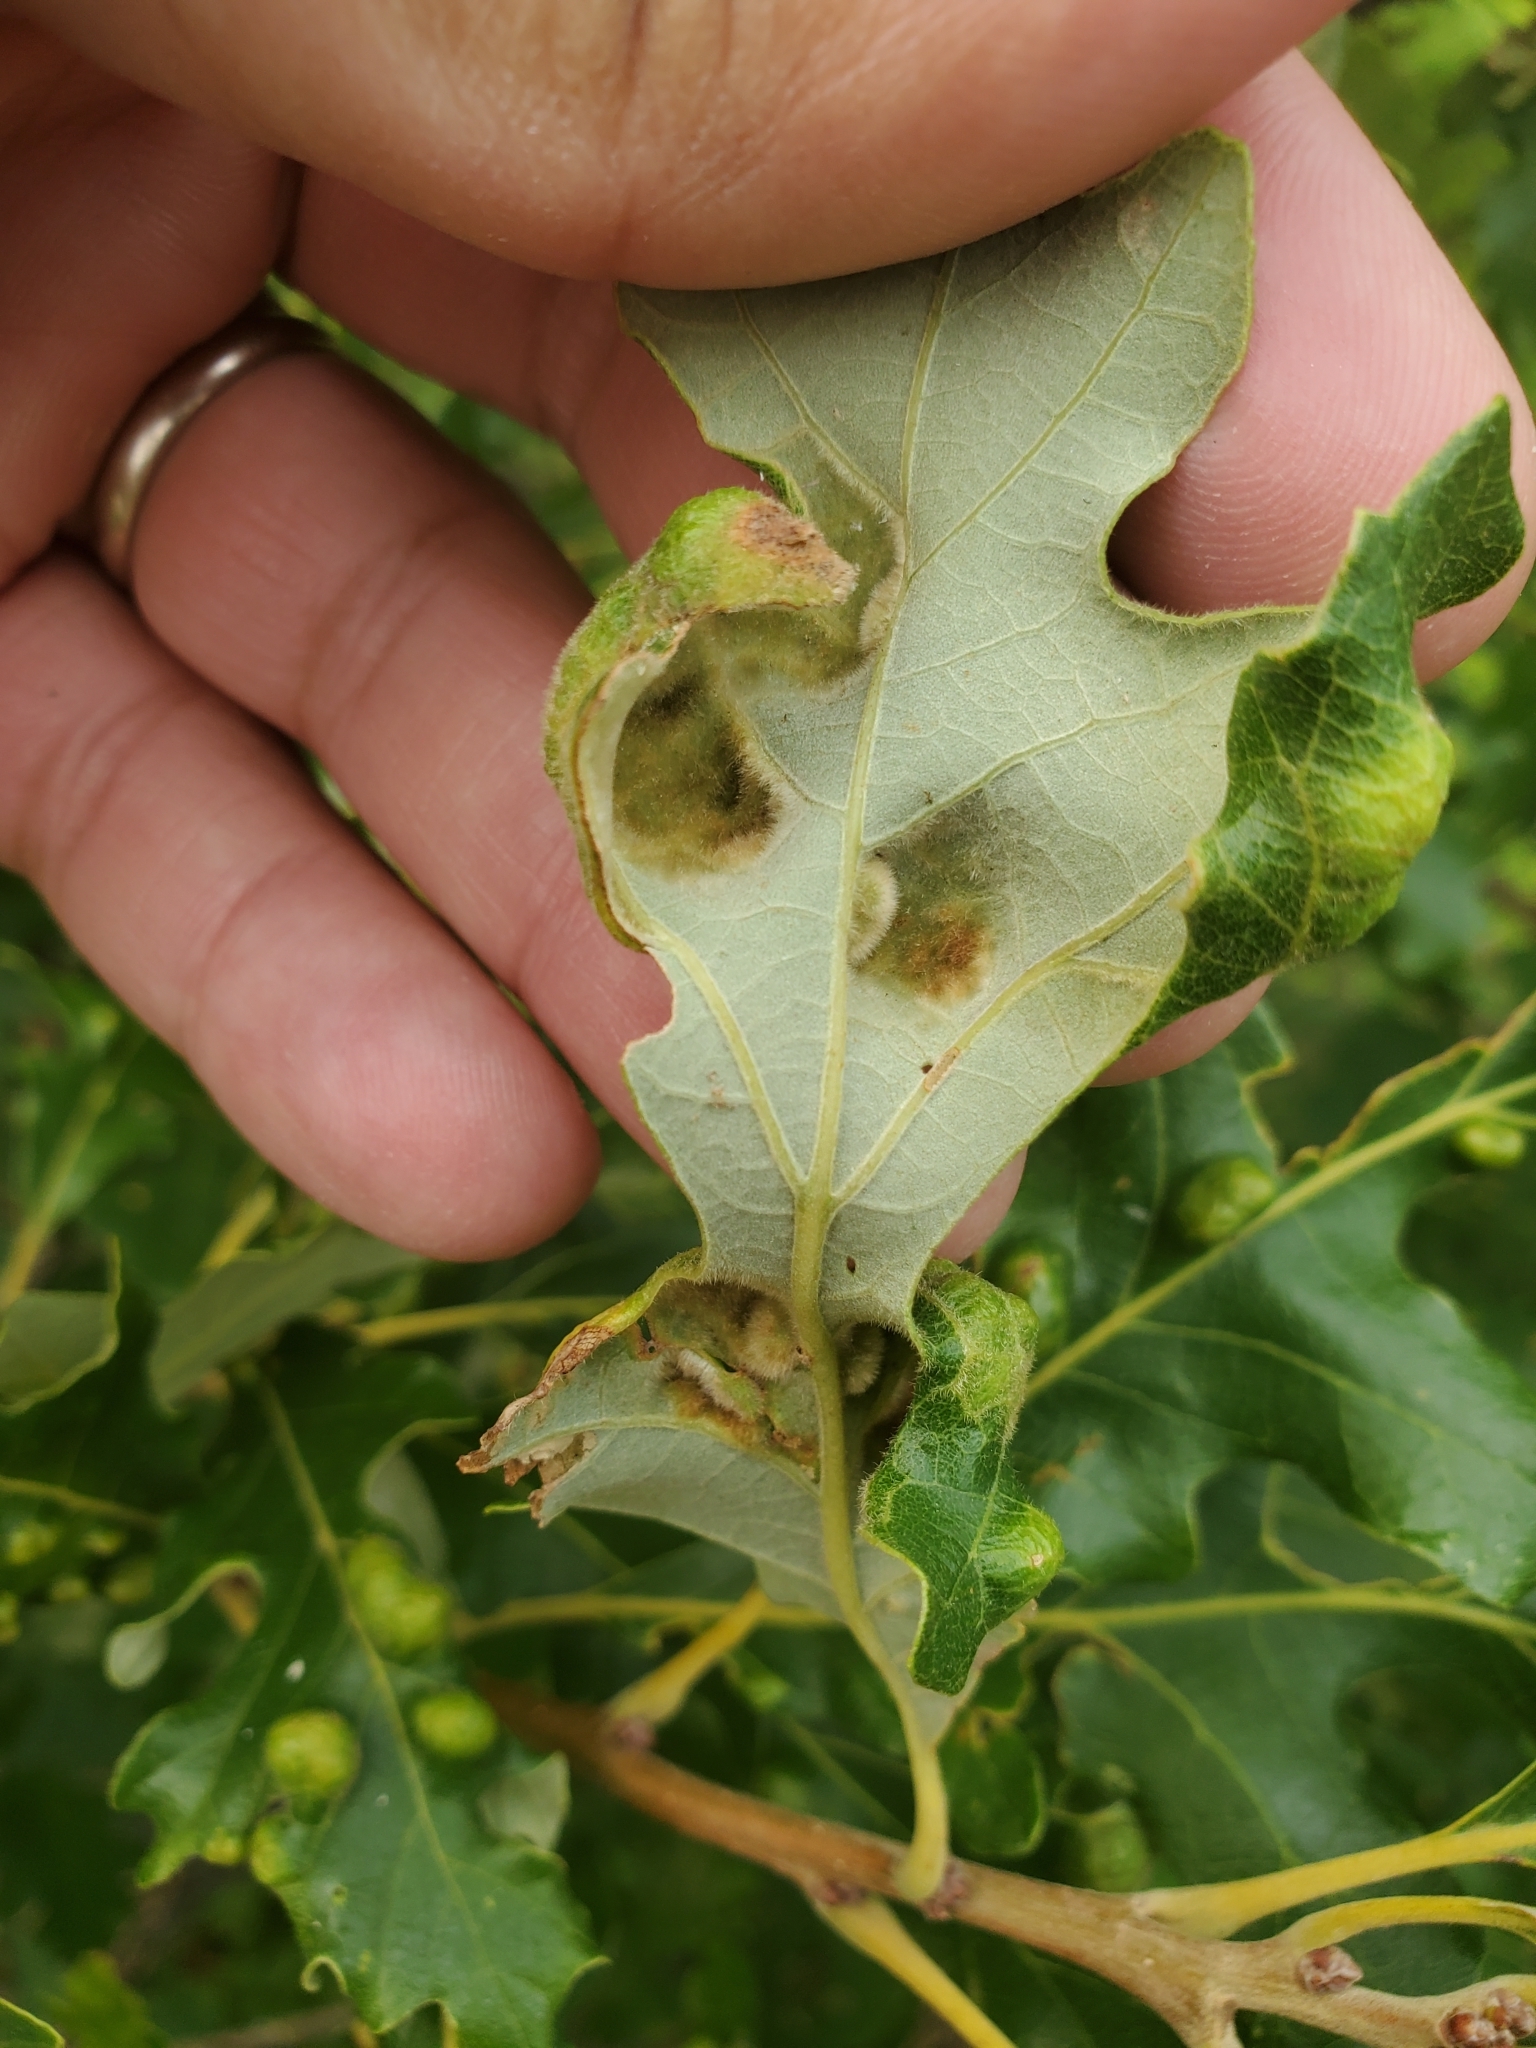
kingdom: Animalia
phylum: Arthropoda
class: Arachnida
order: Trombidiformes
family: Eriophyidae
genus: Aceria
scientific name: Aceria quercina
